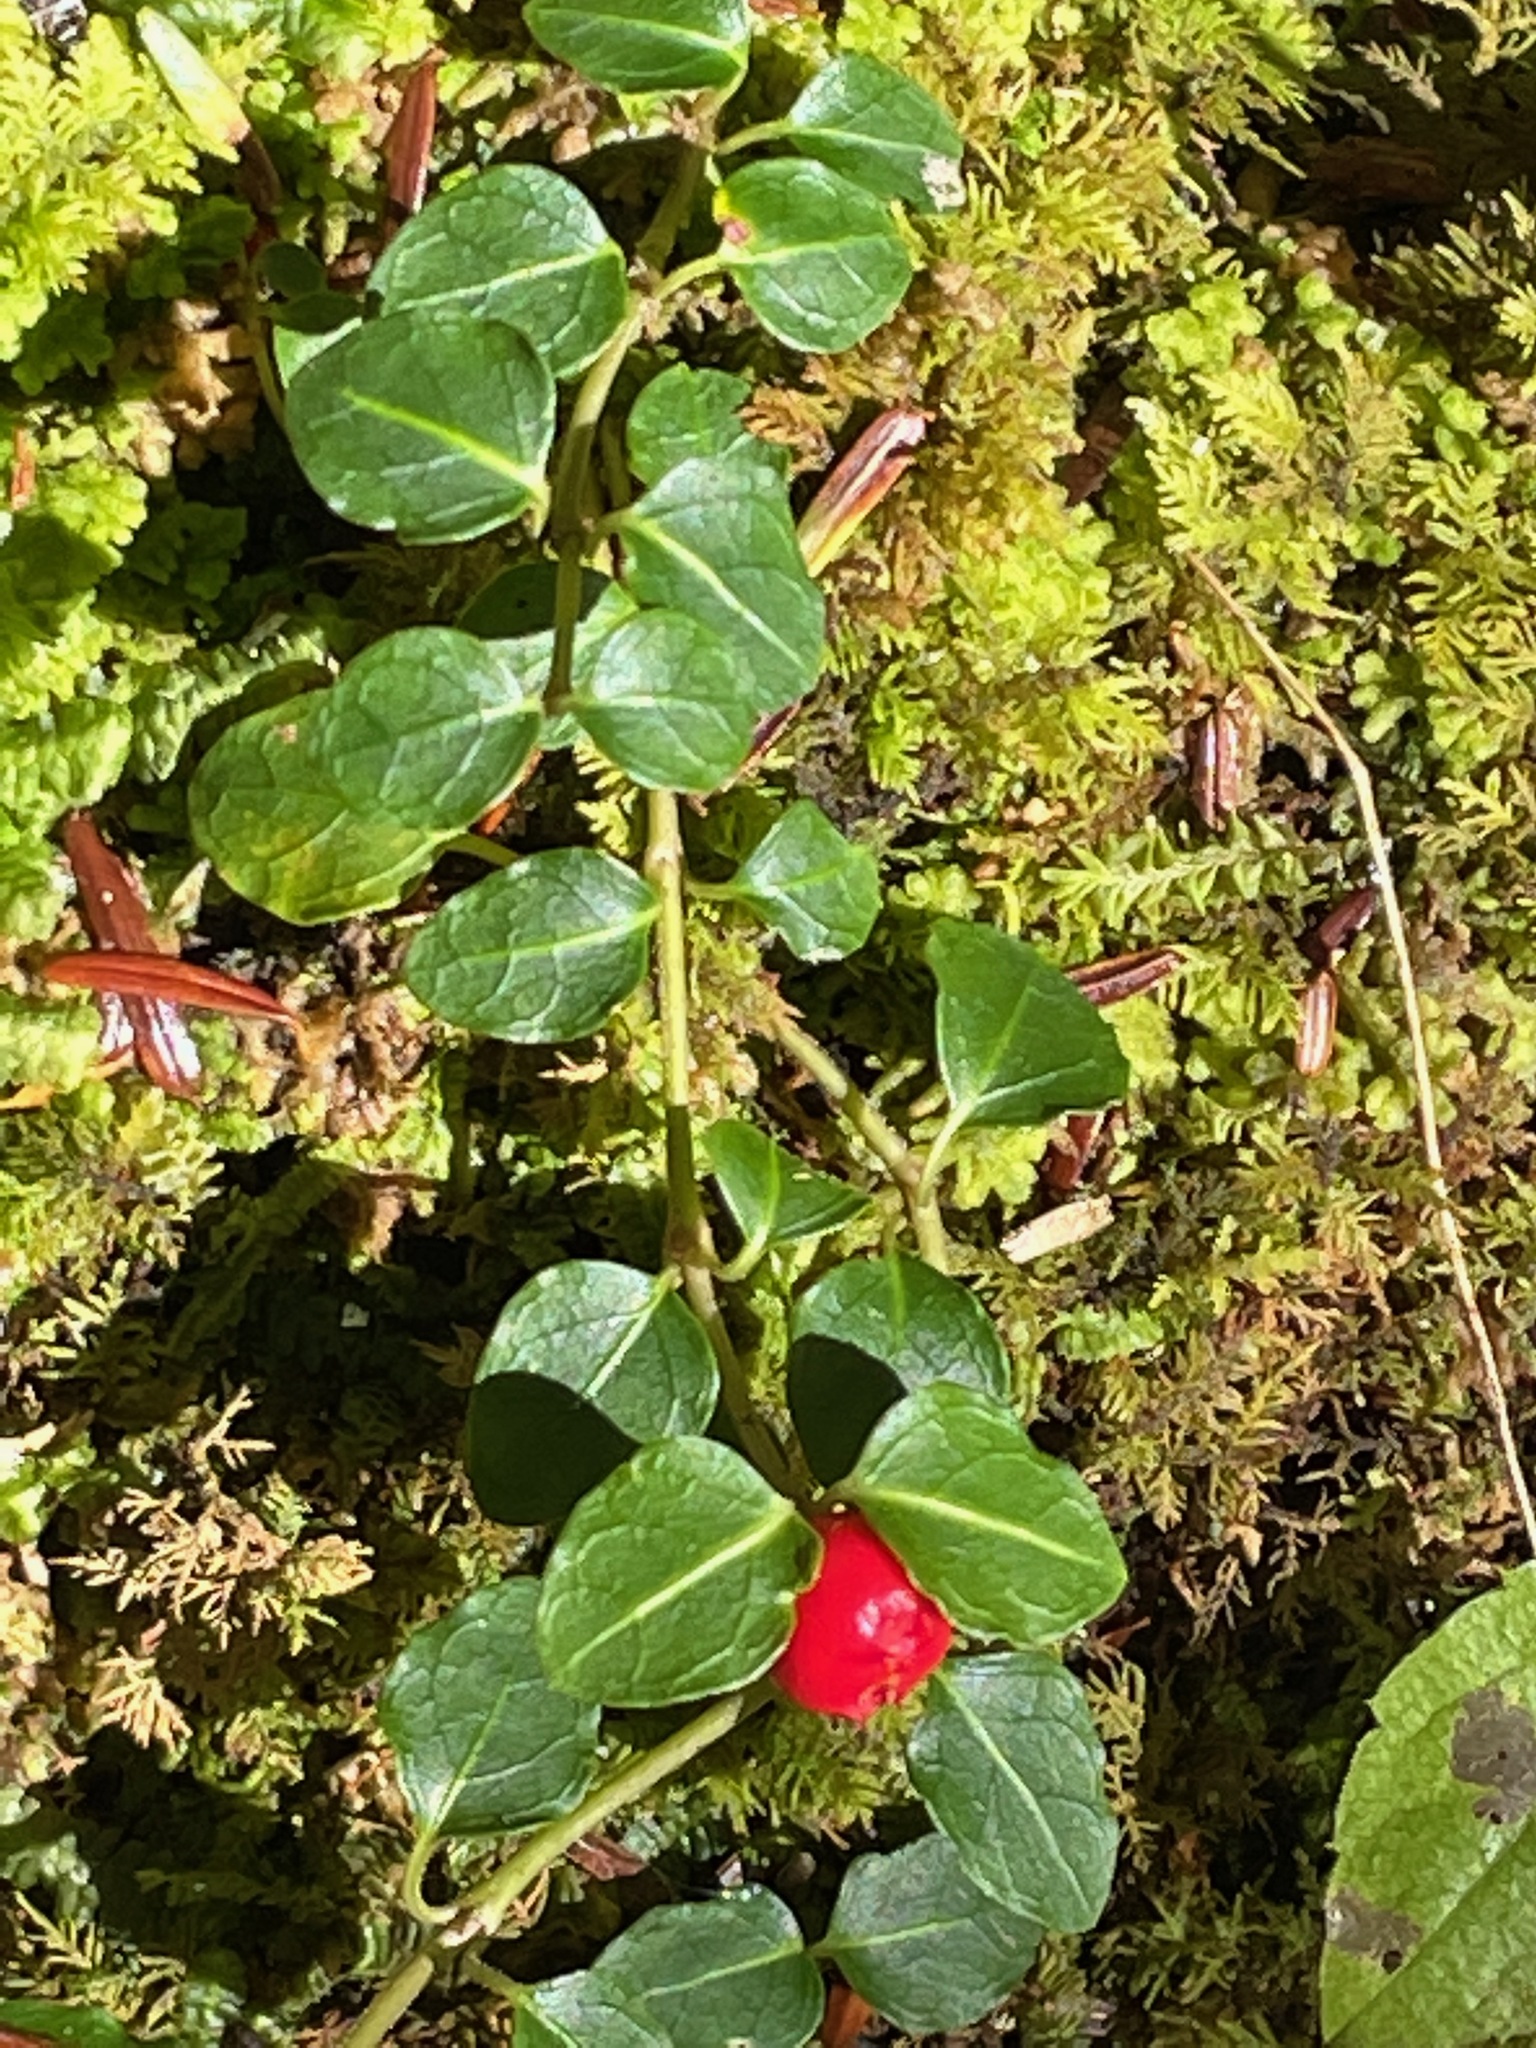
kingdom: Plantae
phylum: Tracheophyta
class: Magnoliopsida
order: Gentianales
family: Rubiaceae
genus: Mitchella
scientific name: Mitchella repens
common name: Partridge-berry
